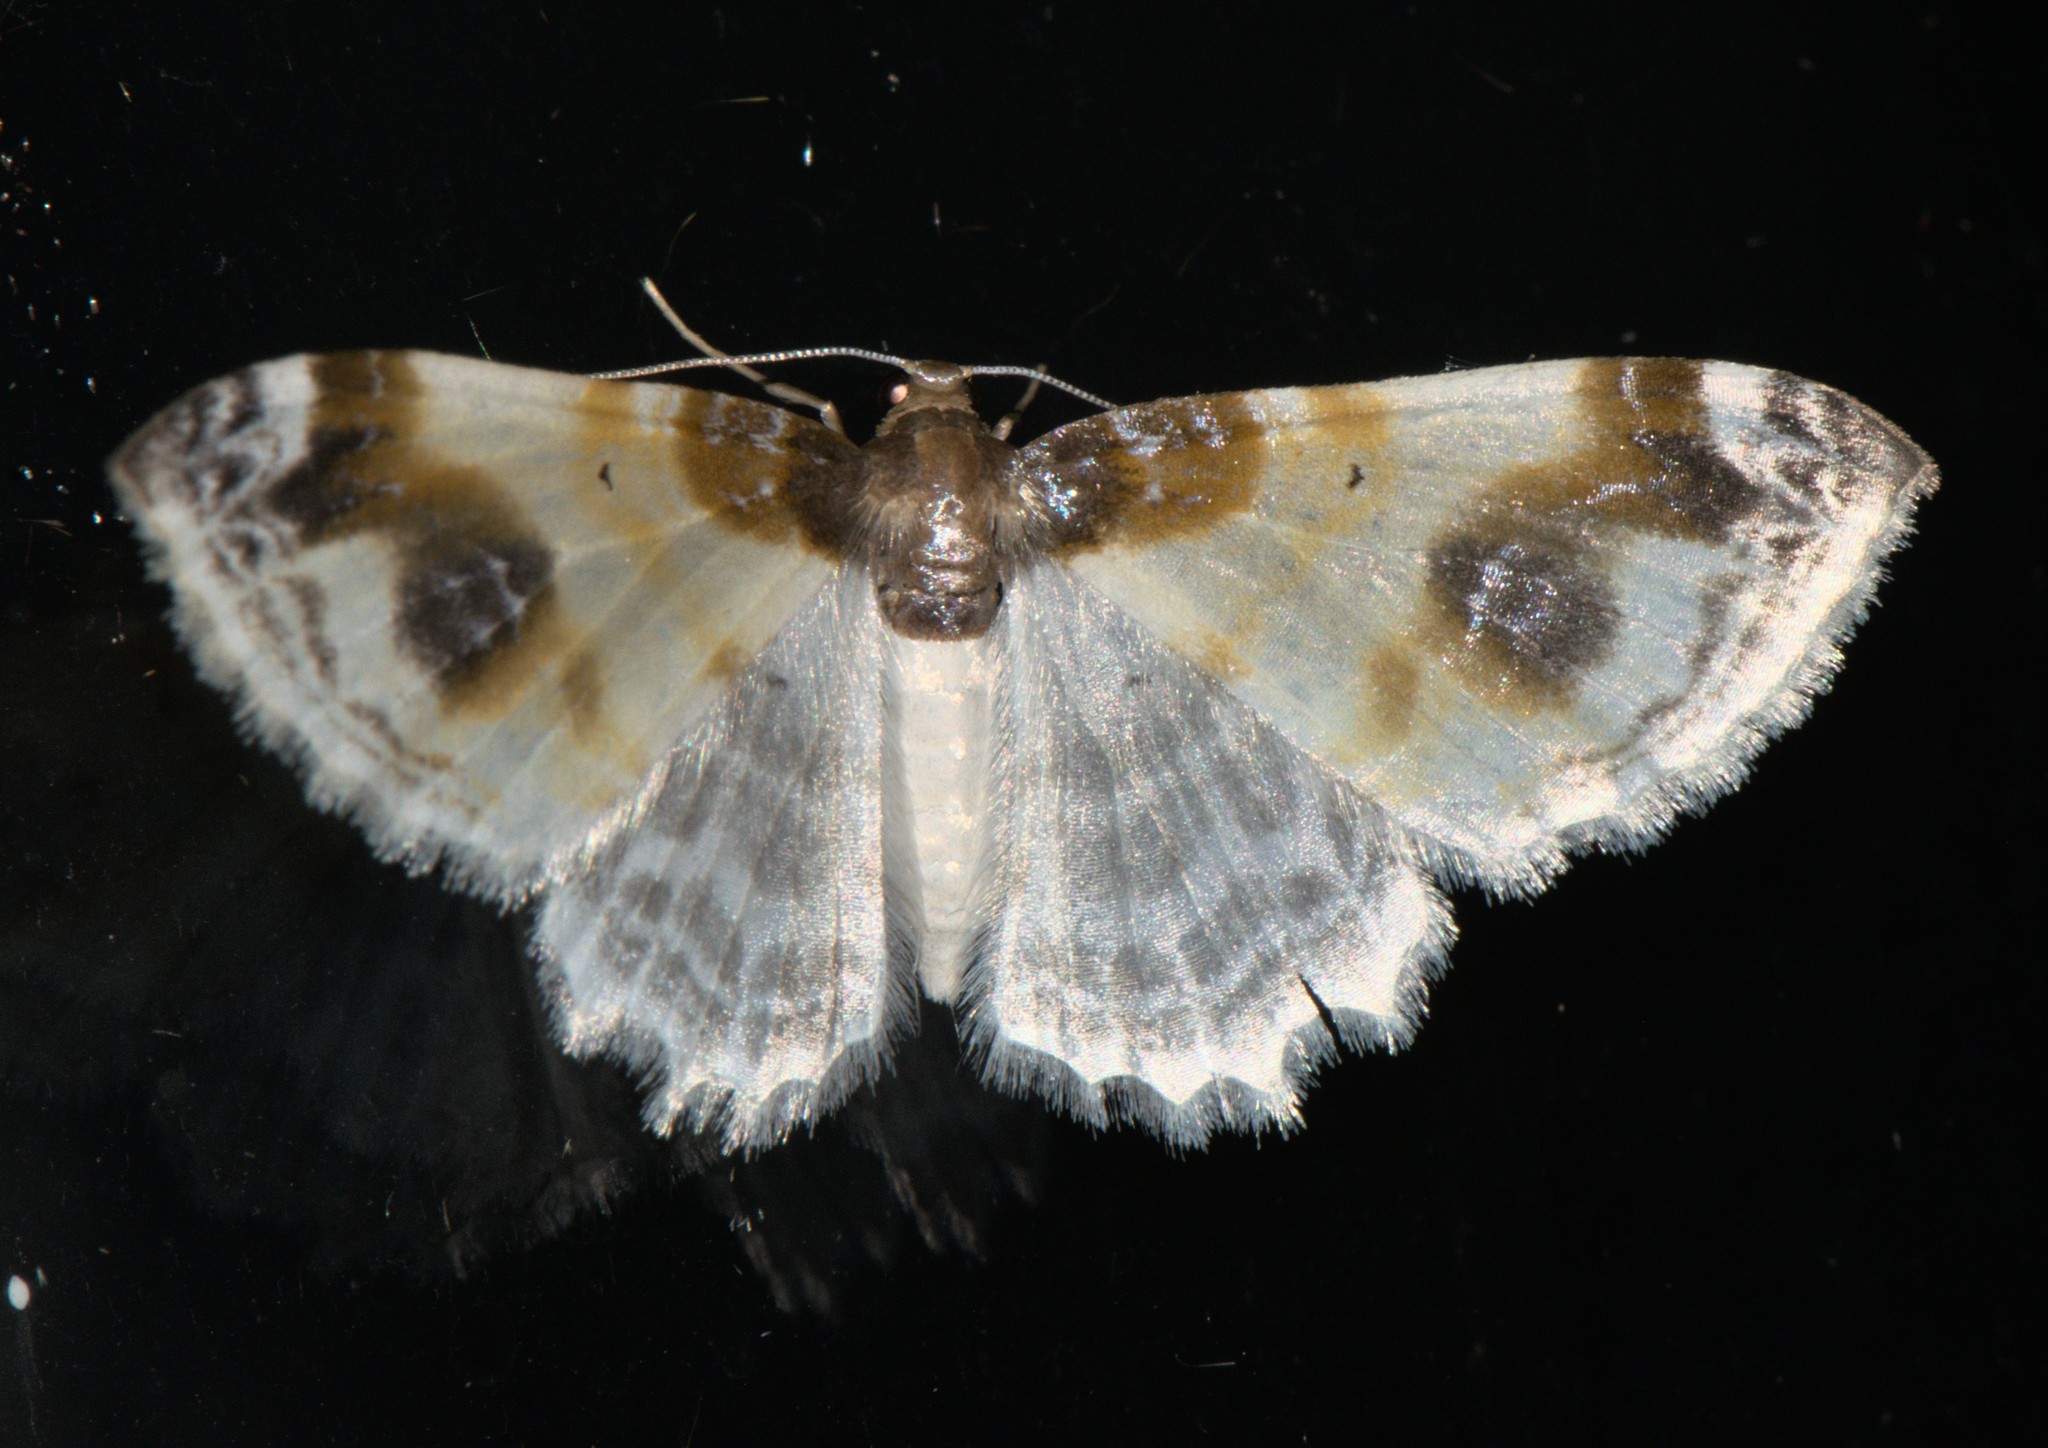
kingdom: Animalia
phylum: Arthropoda
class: Insecta
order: Lepidoptera
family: Geometridae
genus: Agnibesa
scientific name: Agnibesa pictaria
